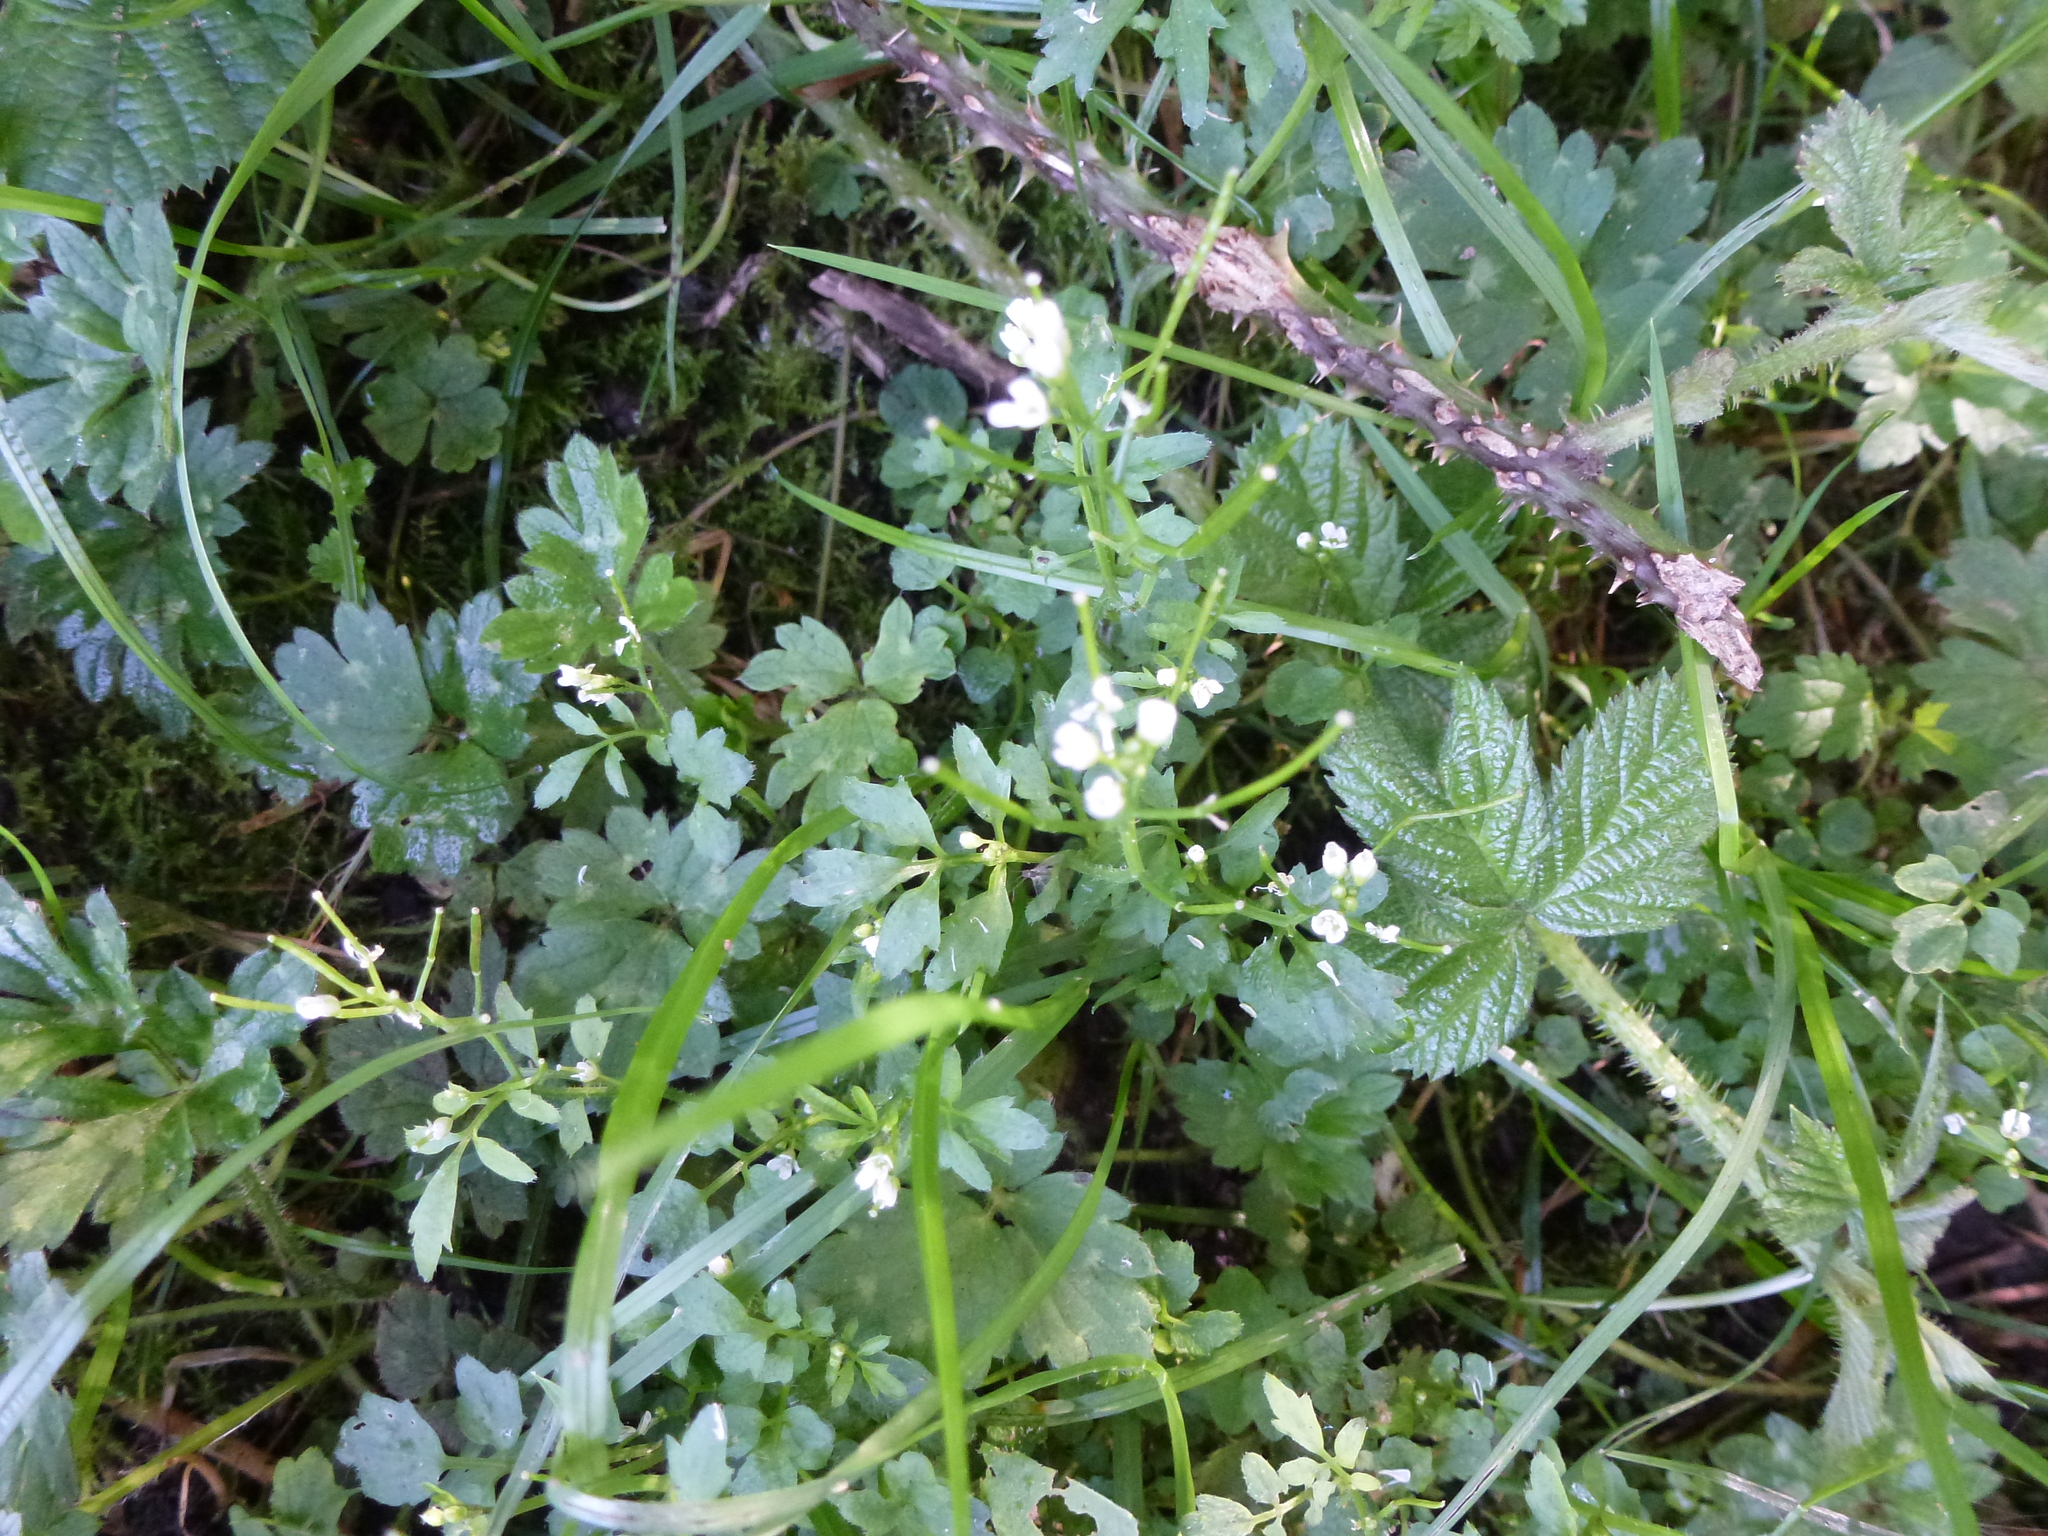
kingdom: Plantae
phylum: Tracheophyta
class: Magnoliopsida
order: Brassicales
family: Brassicaceae
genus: Cardamine
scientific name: Cardamine flexuosa
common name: Woodland bittercress
